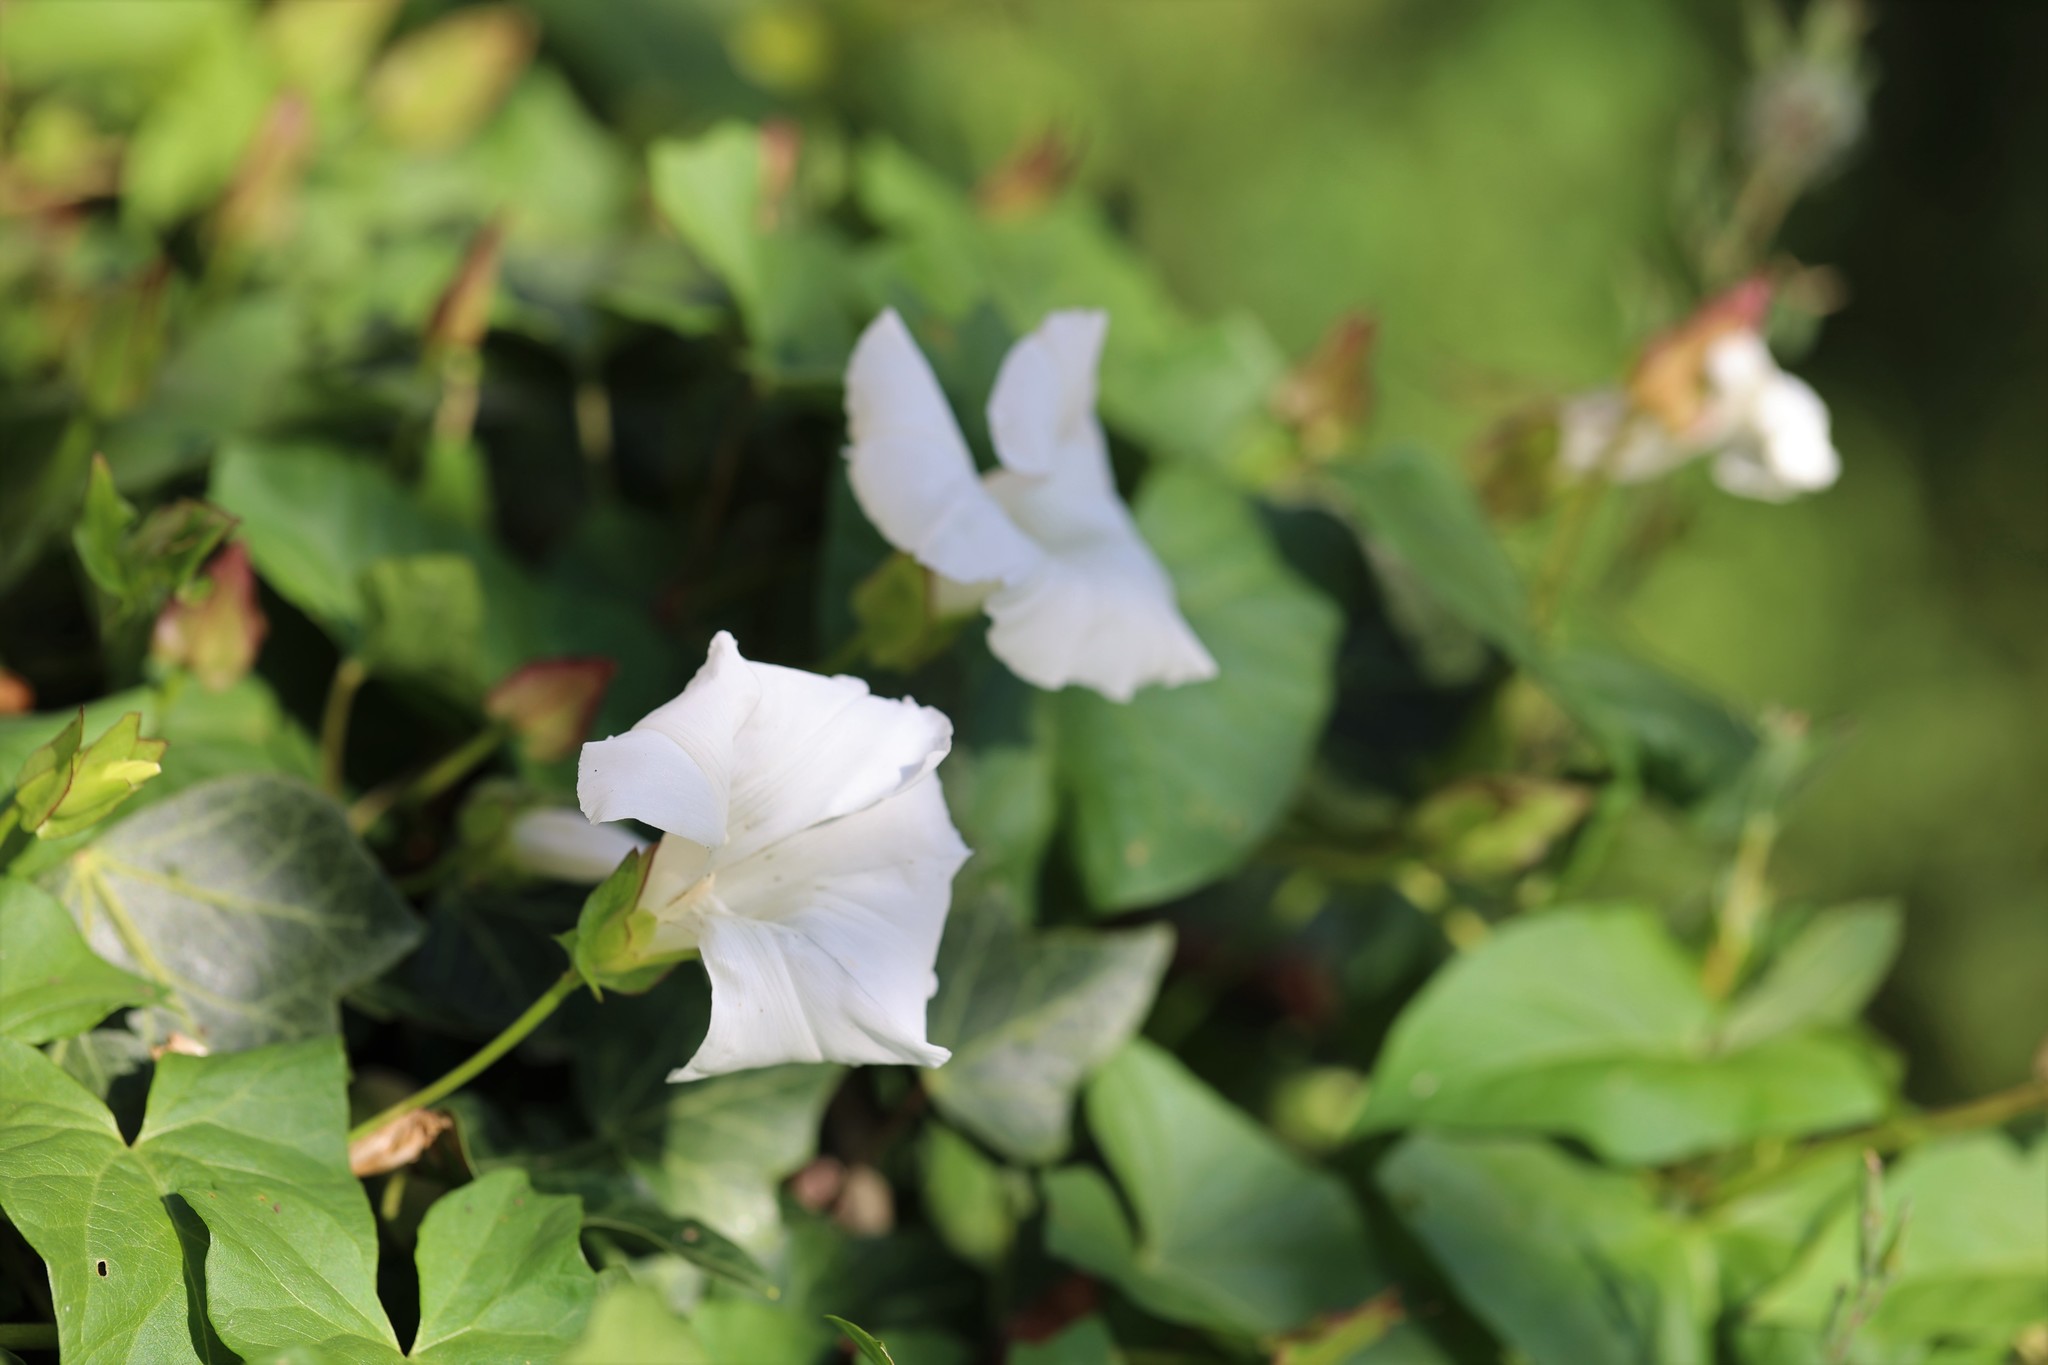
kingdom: Plantae
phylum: Tracheophyta
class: Magnoliopsida
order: Solanales
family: Convolvulaceae
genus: Calystegia
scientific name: Calystegia sepium
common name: Hedge bindweed
